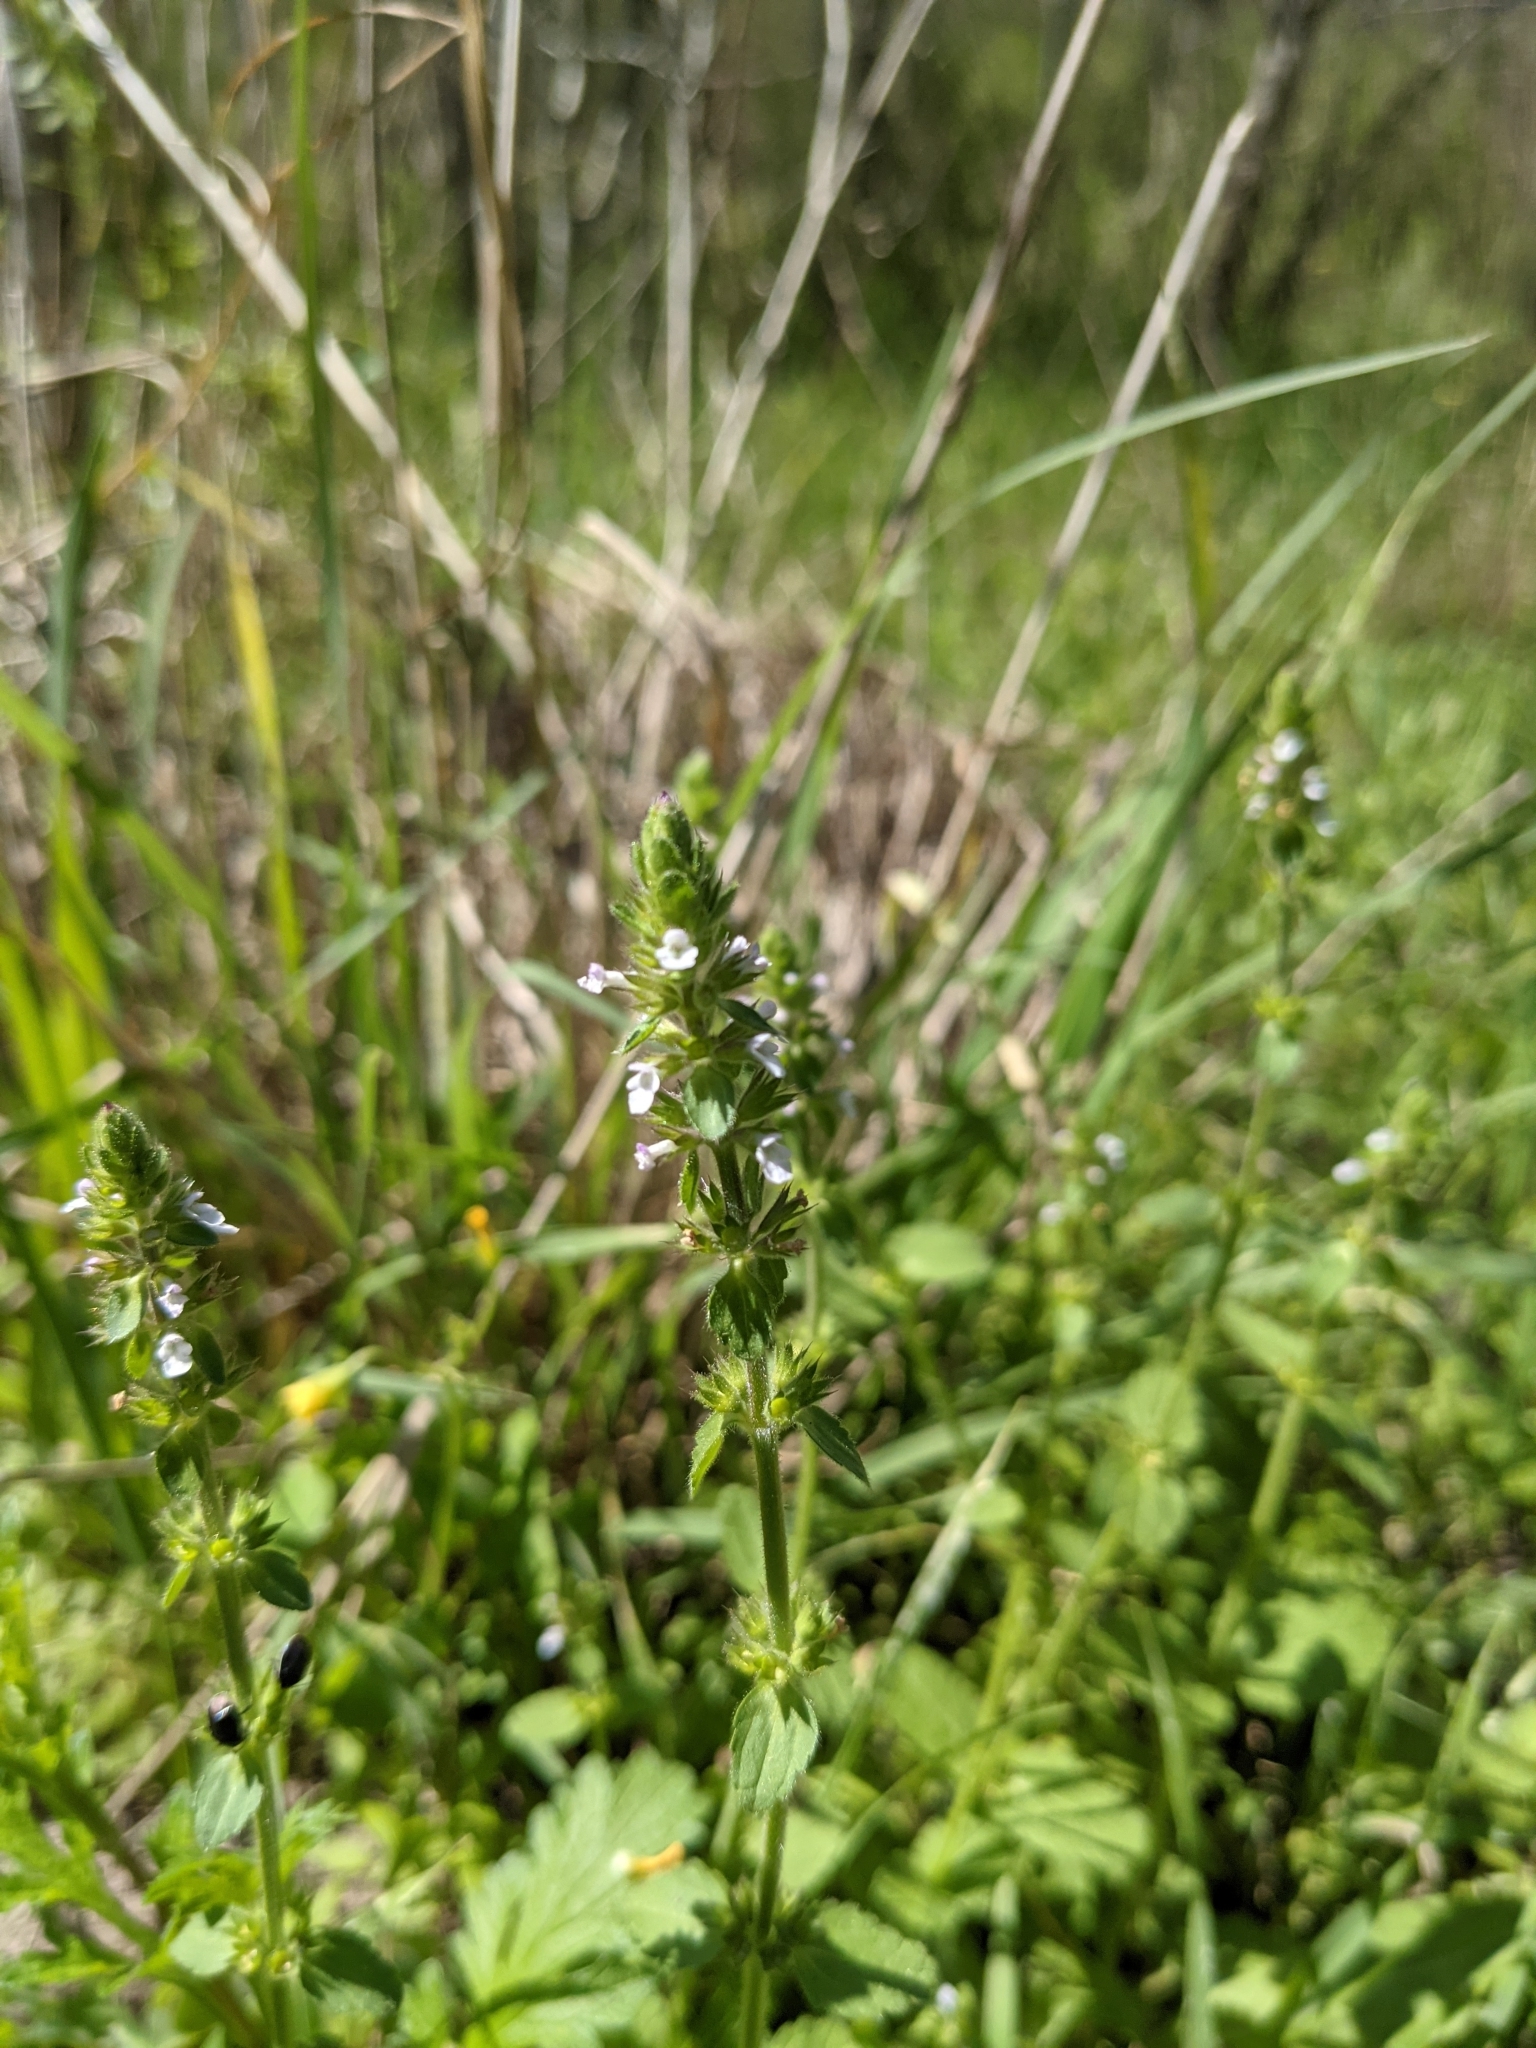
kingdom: Plantae
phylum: Tracheophyta
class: Magnoliopsida
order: Lamiales
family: Lamiaceae
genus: Stachys
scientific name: Stachys
